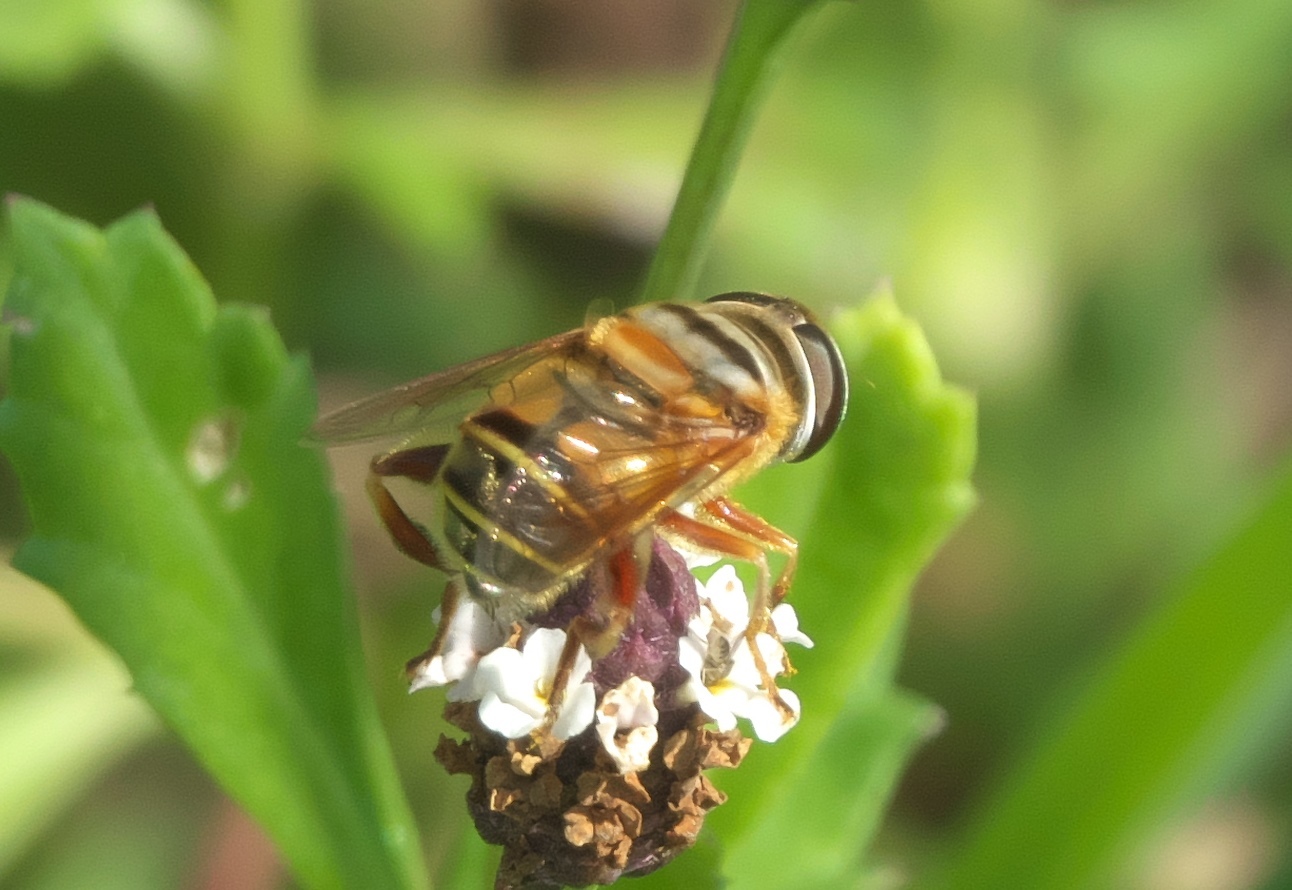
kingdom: Animalia
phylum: Arthropoda
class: Insecta
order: Diptera
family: Syrphidae
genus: Palpada
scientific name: Palpada vinetorum
